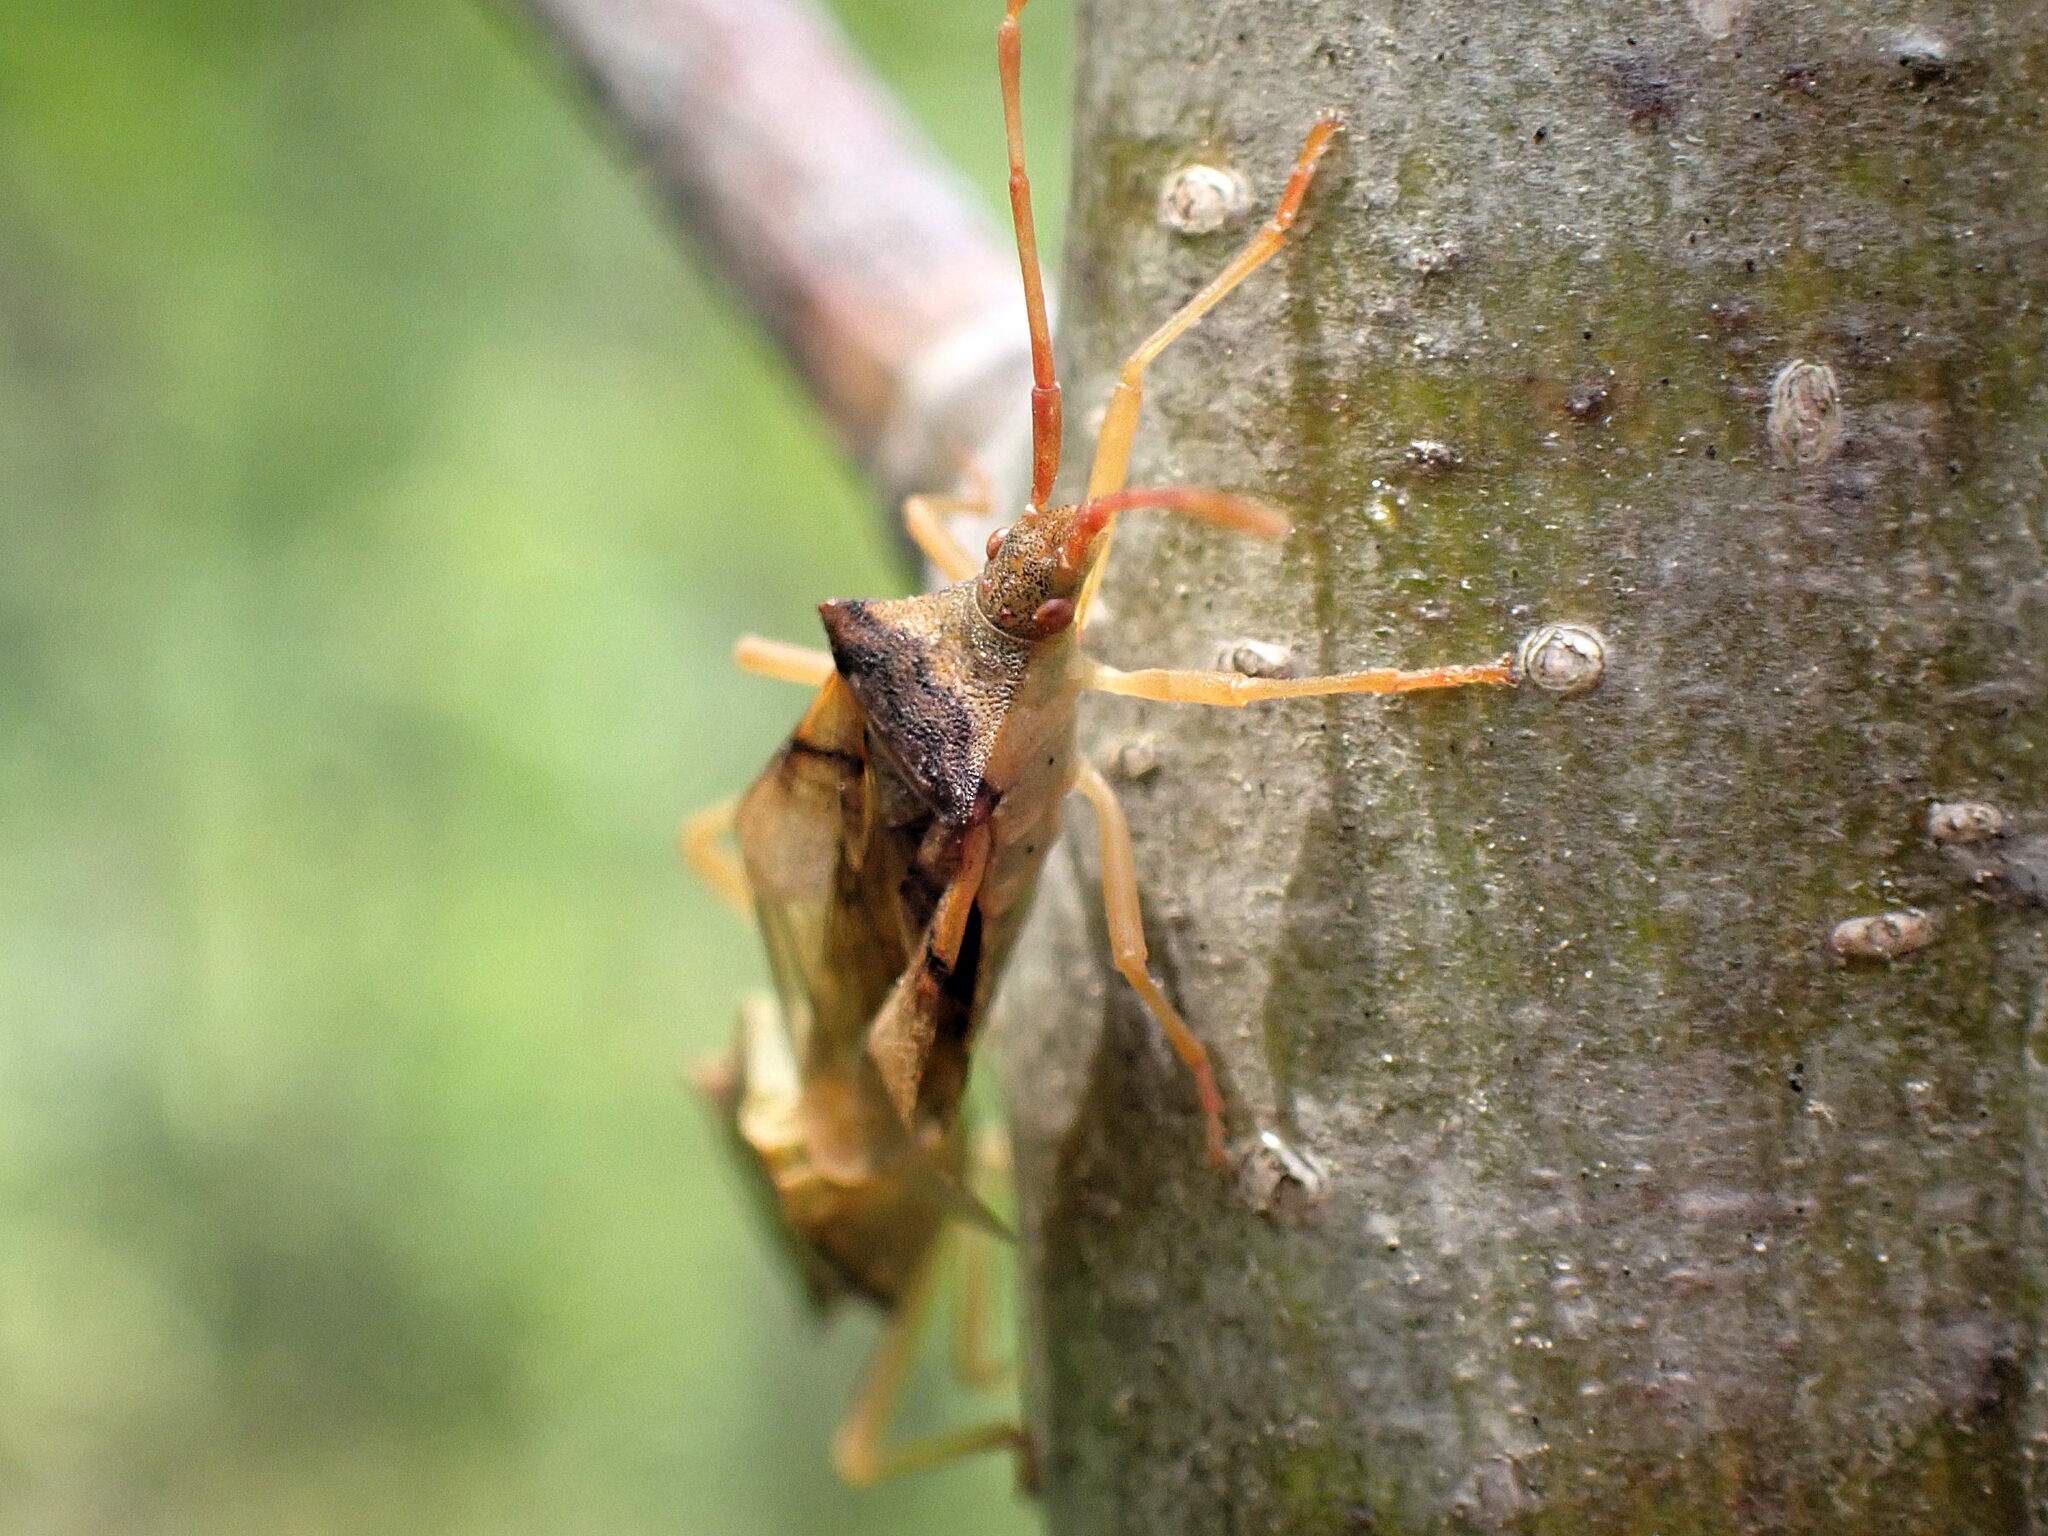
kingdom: Animalia
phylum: Arthropoda
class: Insecta
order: Hemiptera
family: Coreidae
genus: Gonocerus
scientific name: Gonocerus acuteangulatus
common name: Box bug
